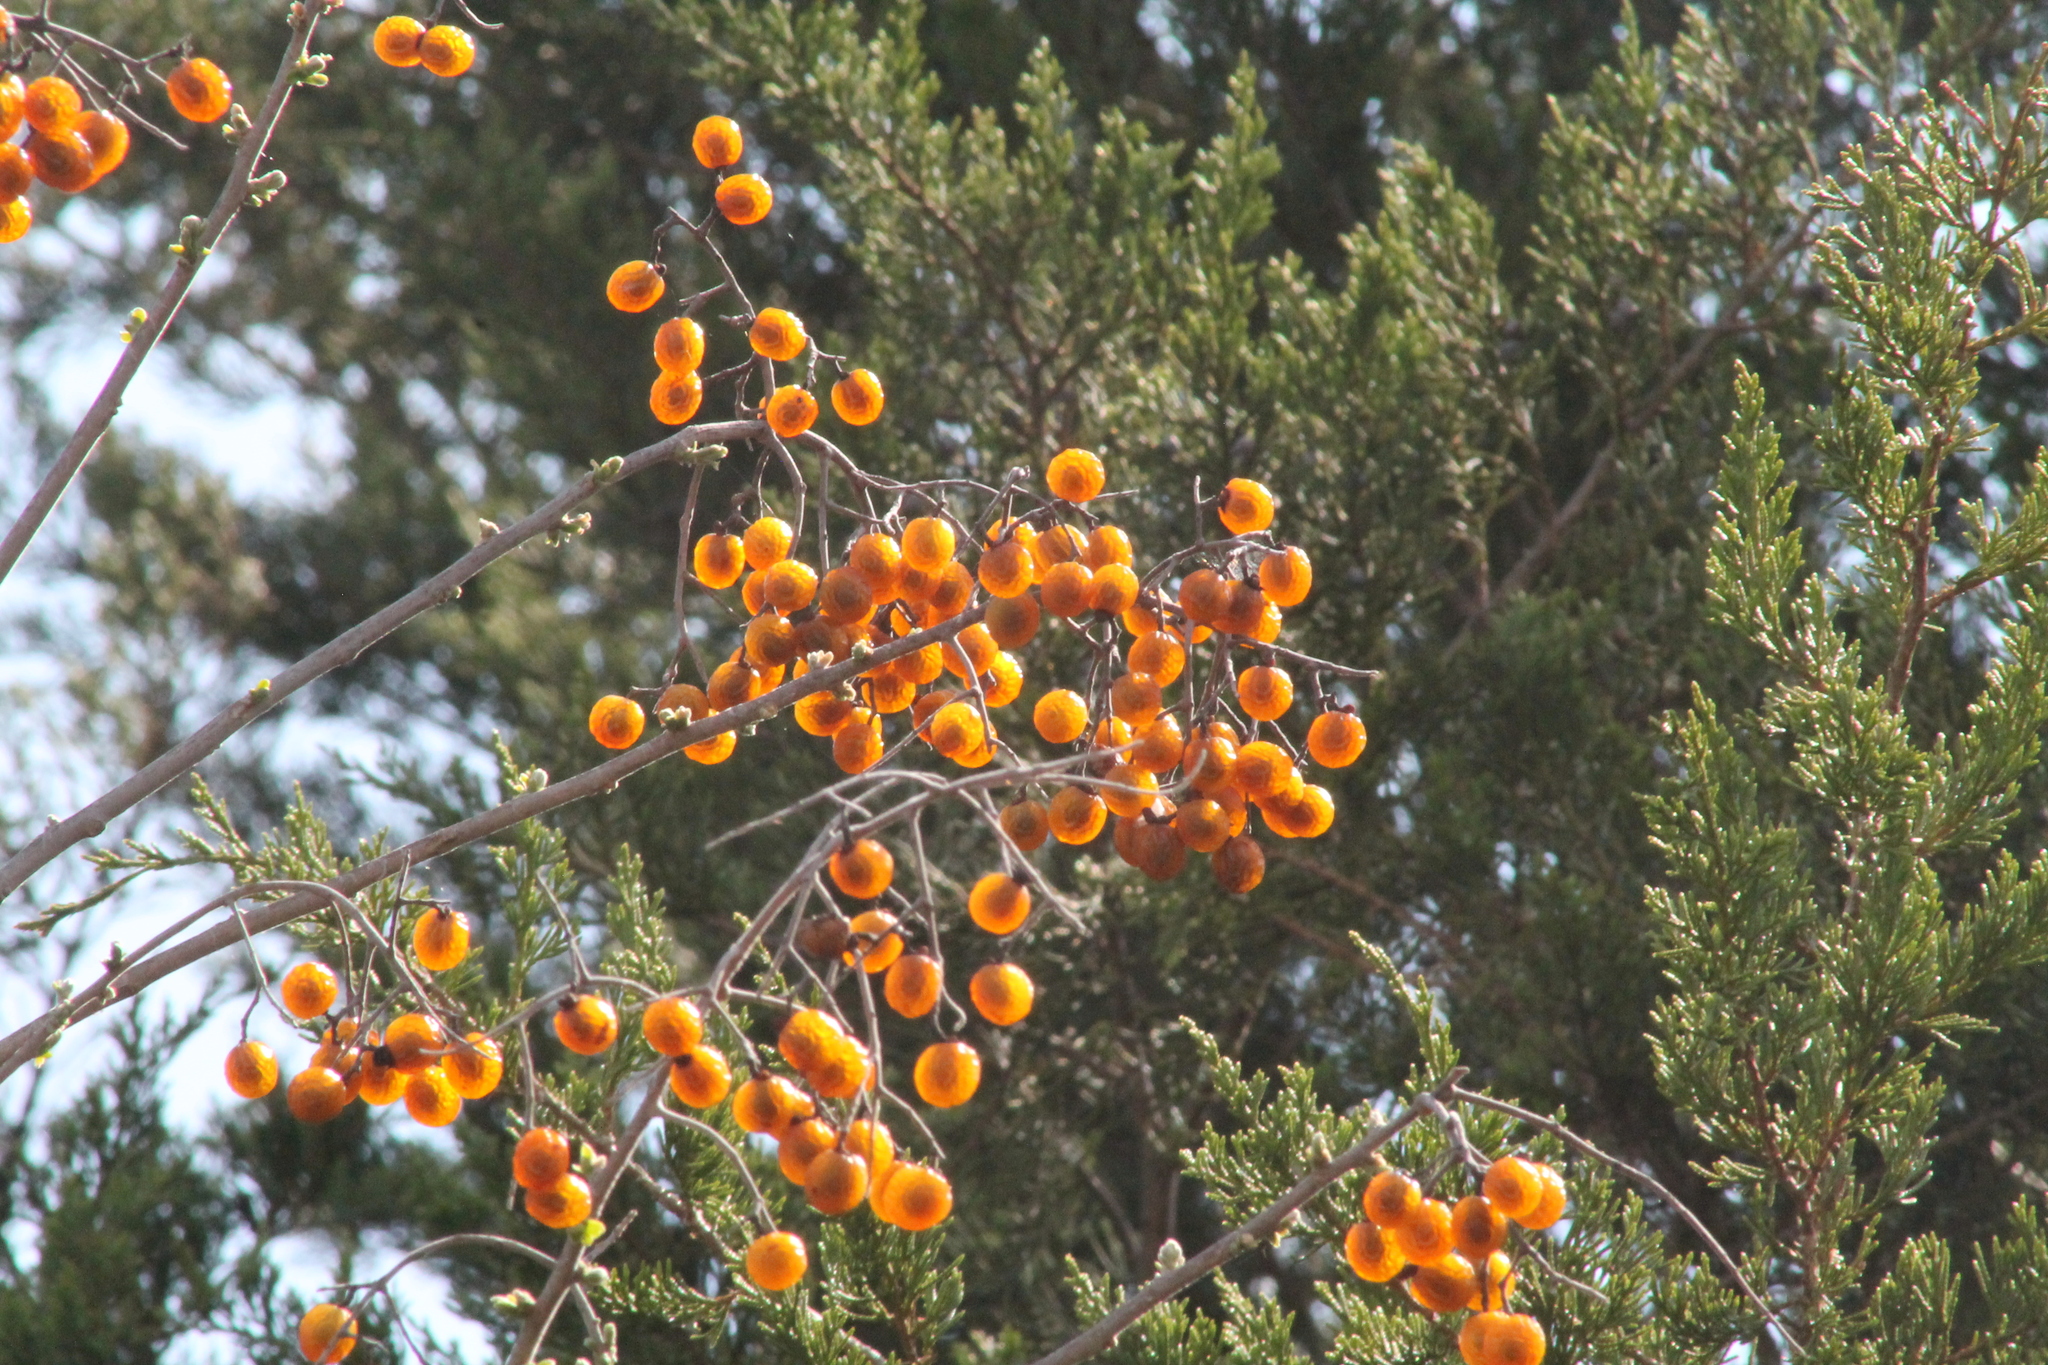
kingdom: Plantae
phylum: Tracheophyta
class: Magnoliopsida
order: Sapindales
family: Sapindaceae
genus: Sapindus
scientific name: Sapindus drummondii
